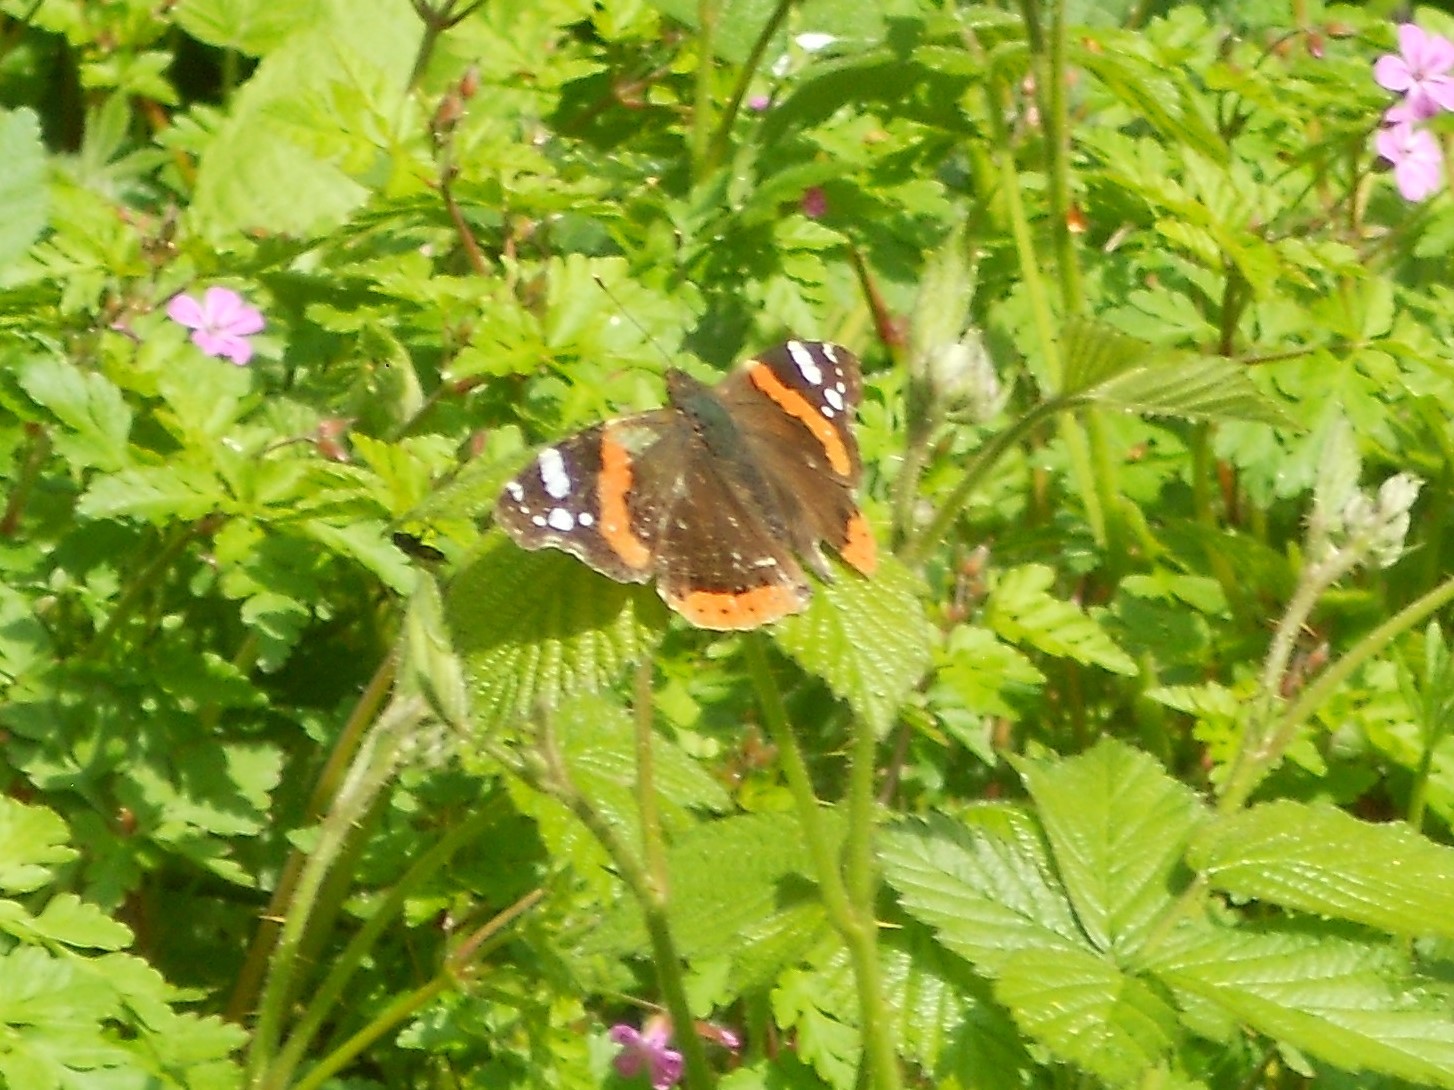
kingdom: Animalia
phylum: Arthropoda
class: Insecta
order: Lepidoptera
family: Nymphalidae
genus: Vanessa
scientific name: Vanessa atalanta
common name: Red admiral
